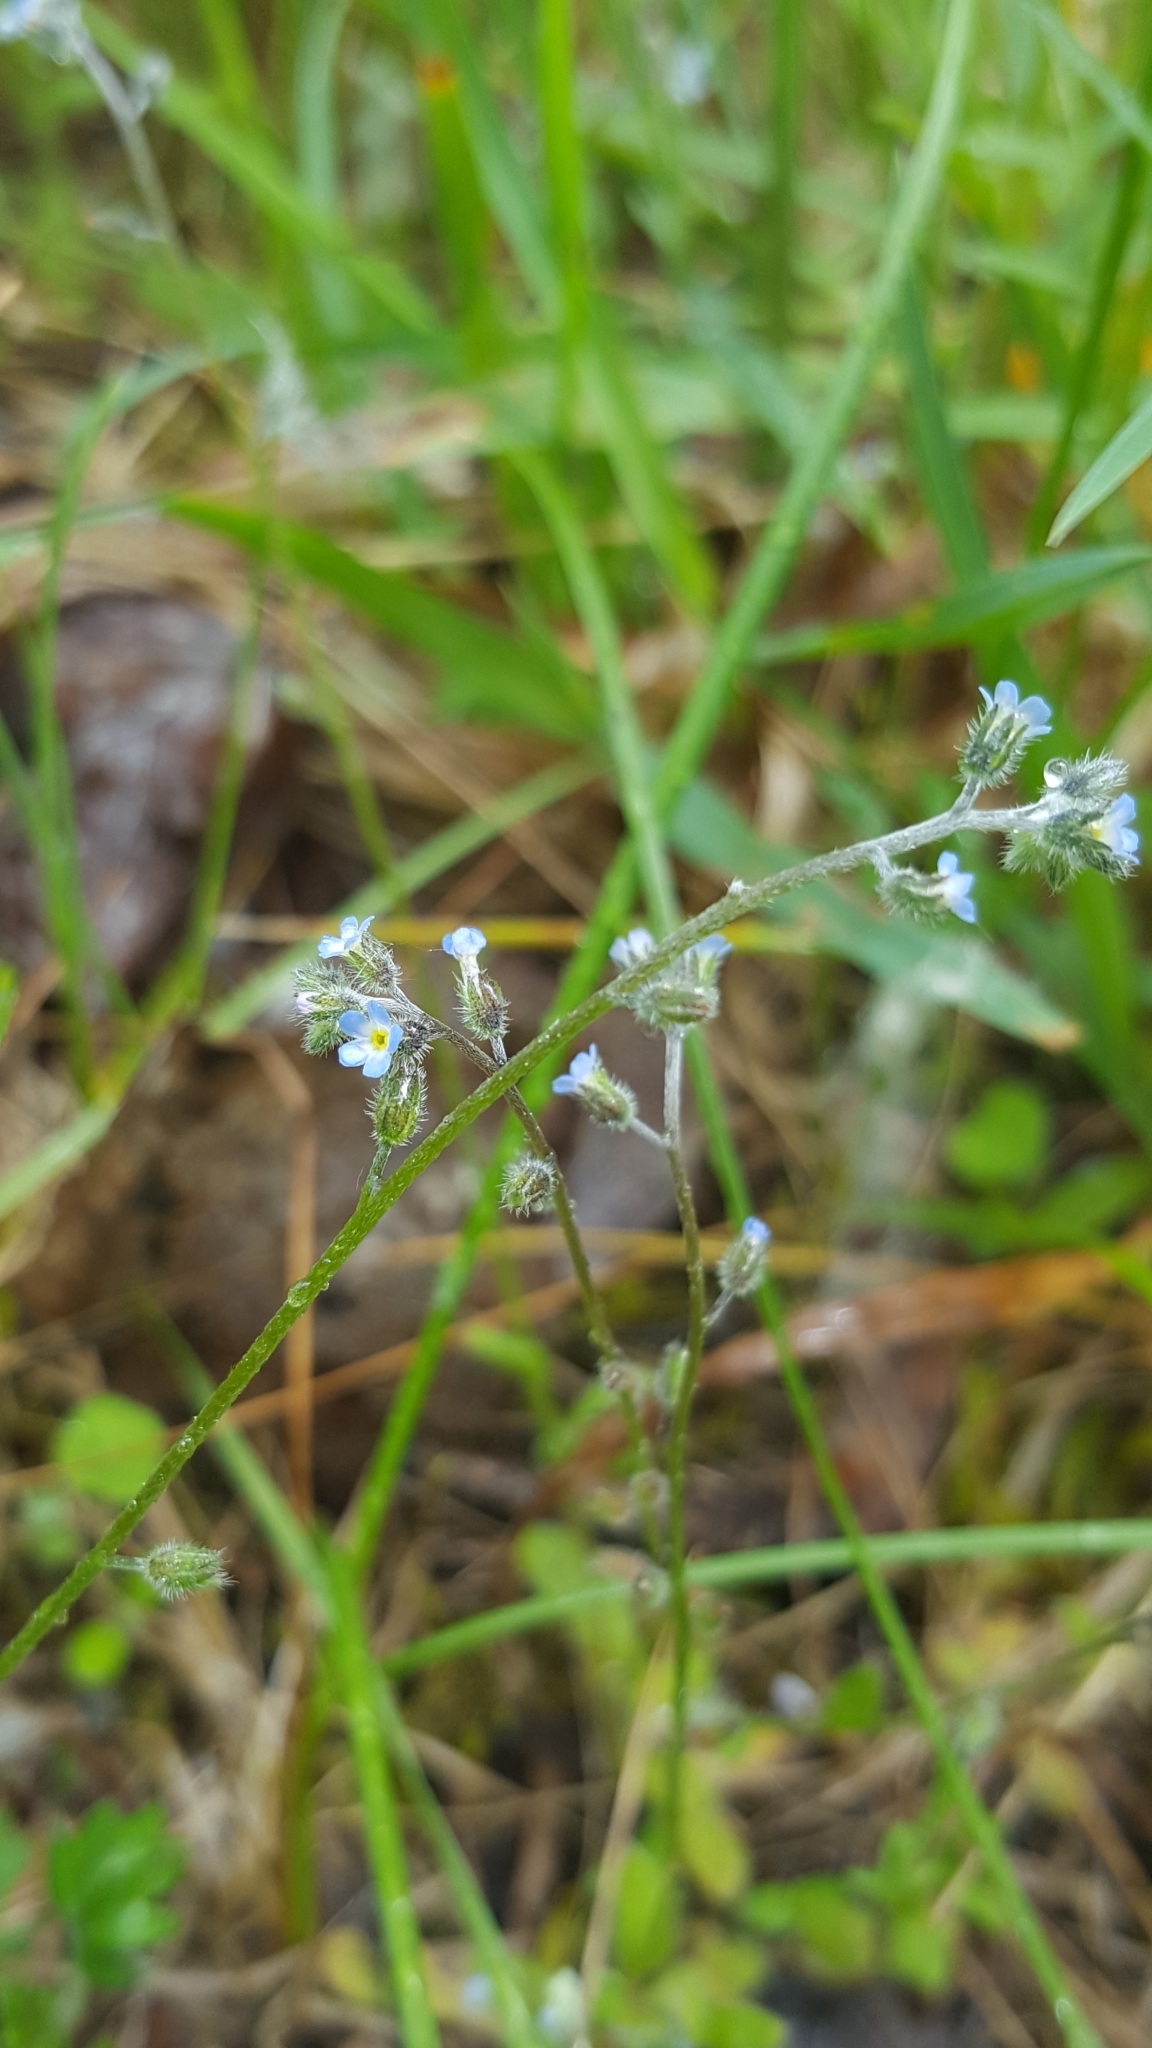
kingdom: Plantae
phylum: Tracheophyta
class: Magnoliopsida
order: Boraginales
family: Boraginaceae
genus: Myosotis
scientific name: Myosotis arvensis
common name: Field forget-me-not
